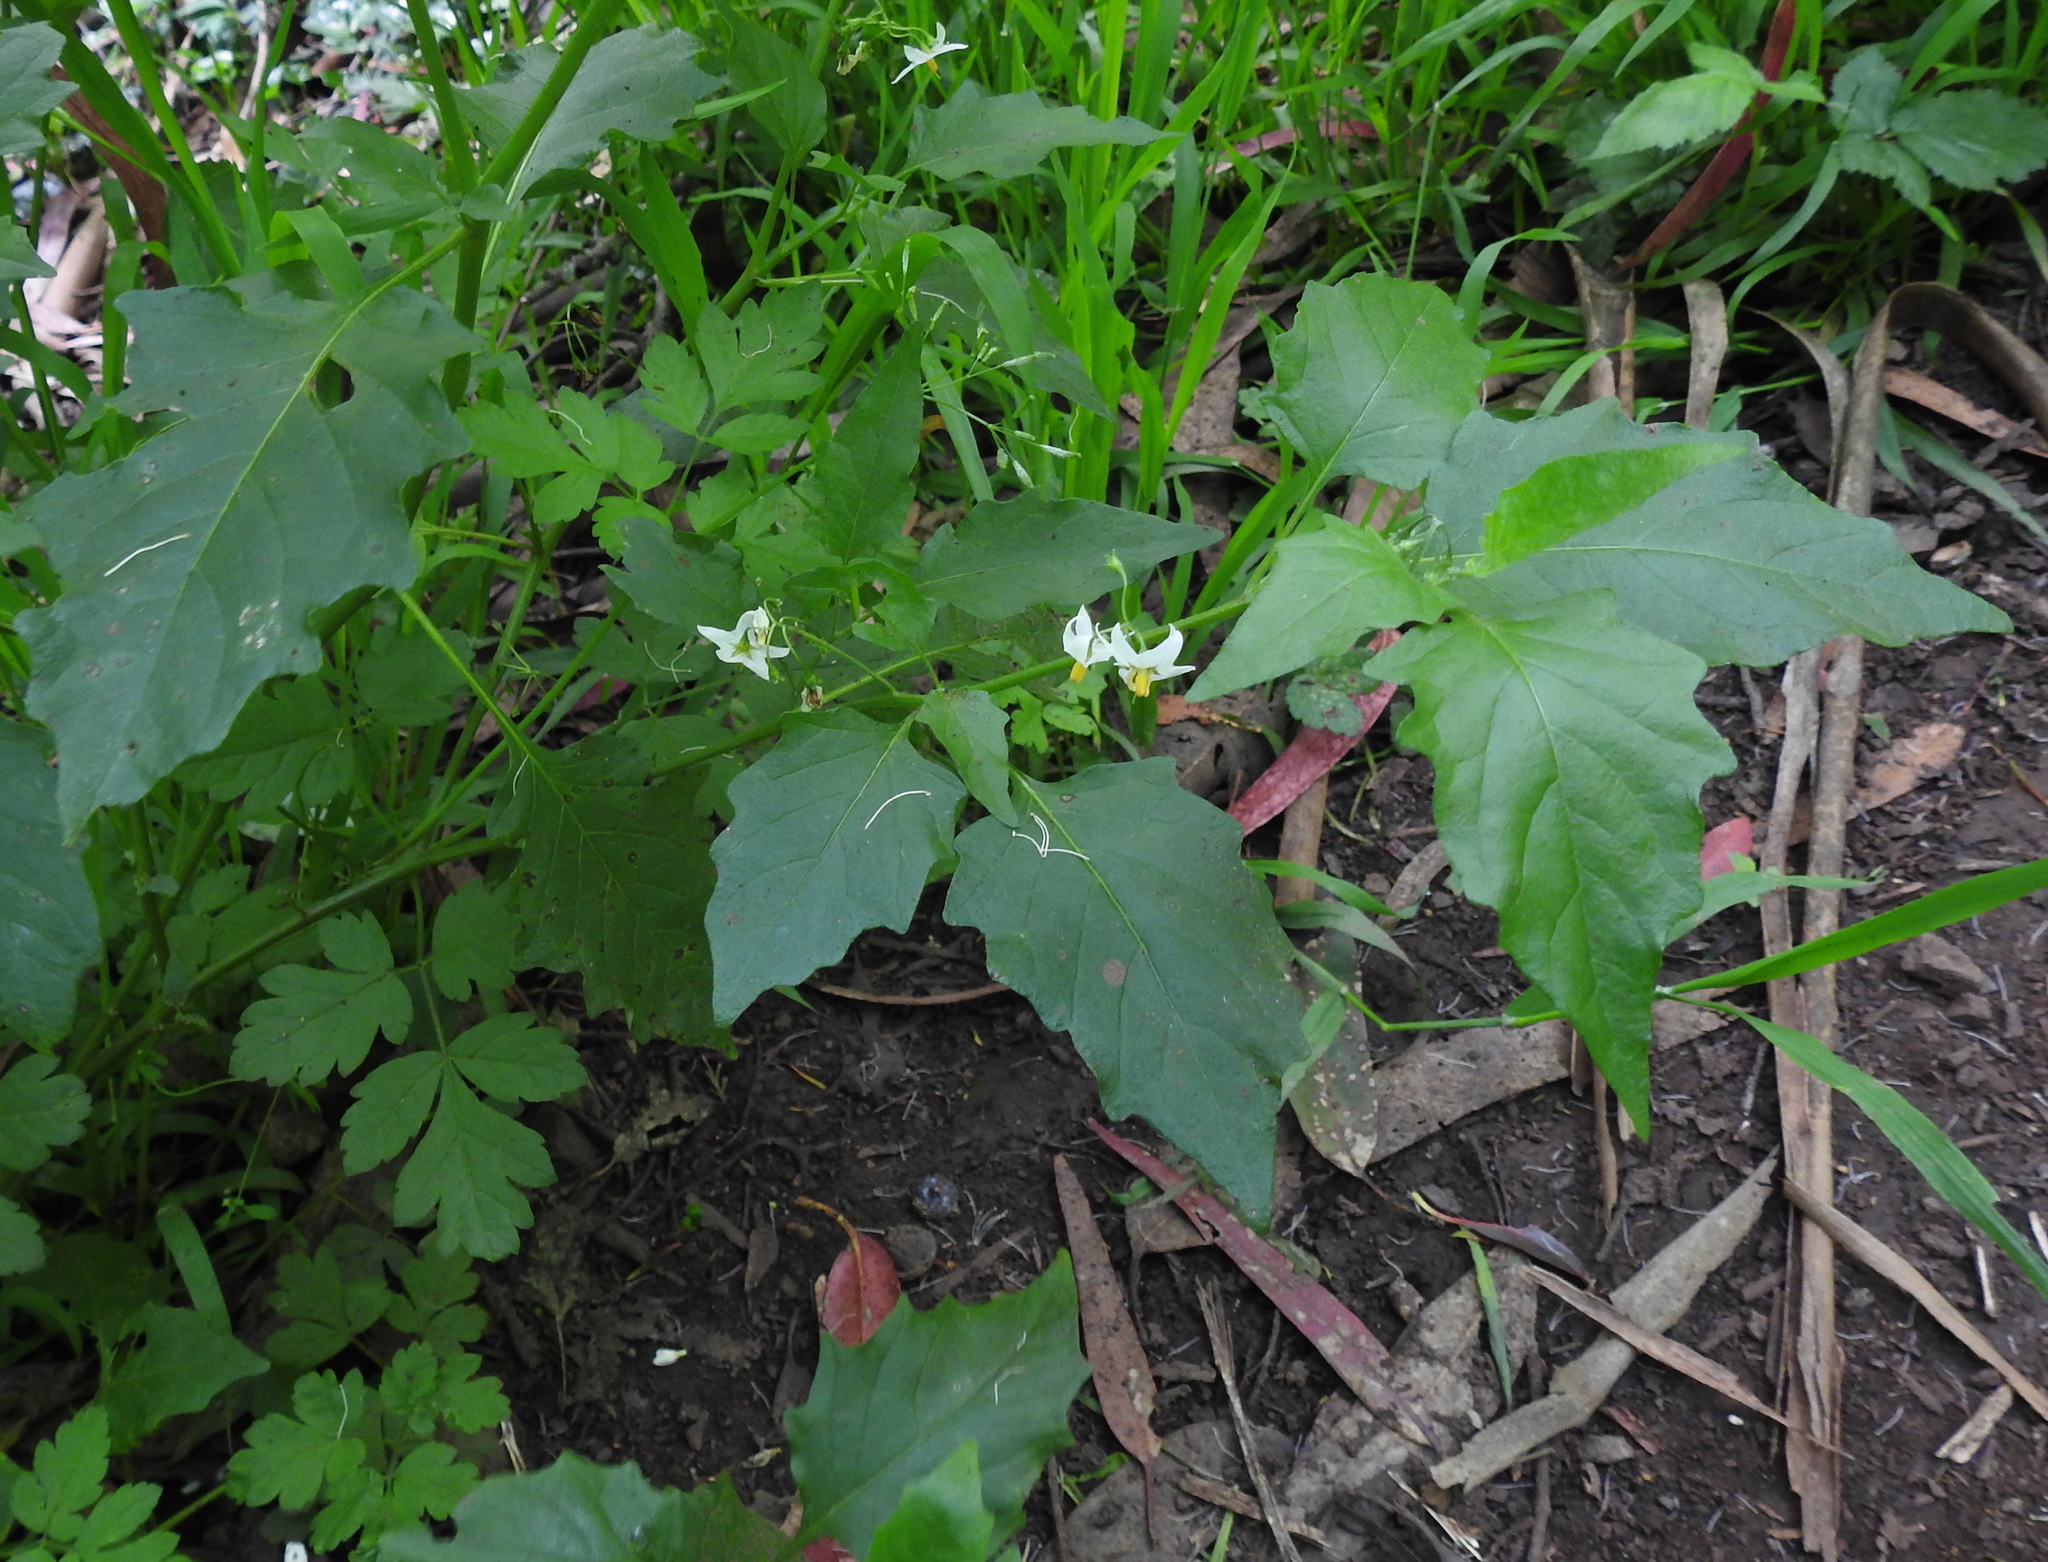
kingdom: Plantae
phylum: Tracheophyta
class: Magnoliopsida
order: Solanales
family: Solanaceae
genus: Solanum
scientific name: Solanum furcatum
